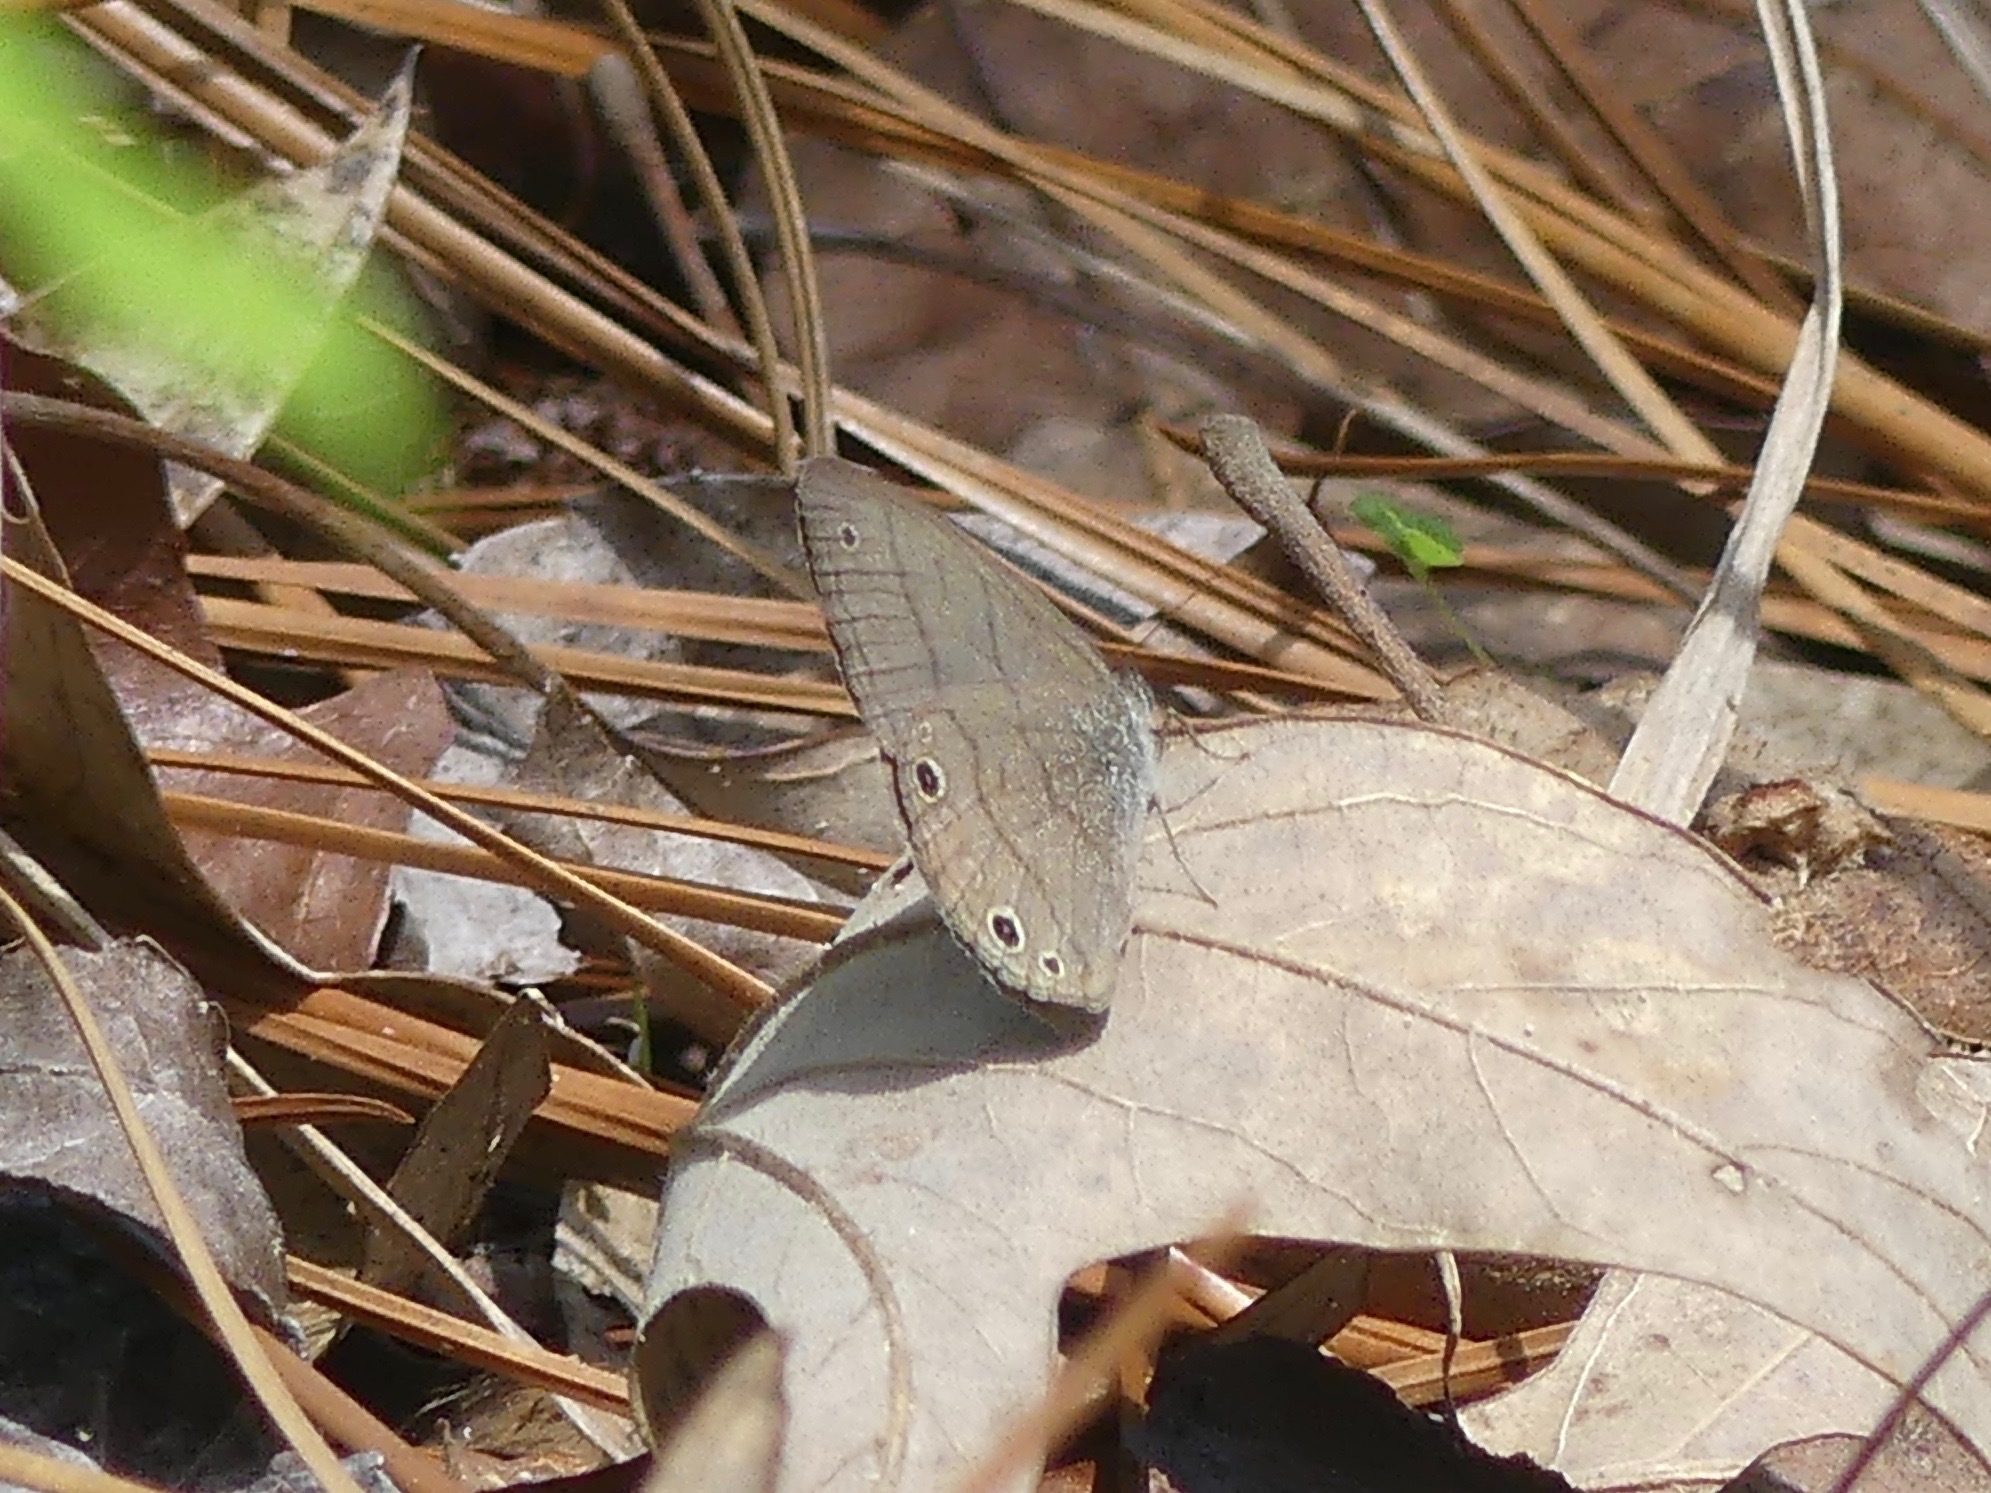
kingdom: Animalia
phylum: Arthropoda
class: Insecta
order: Lepidoptera
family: Nymphalidae
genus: Hermeuptychia
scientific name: Hermeuptychia hermes
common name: Hermes satyr
